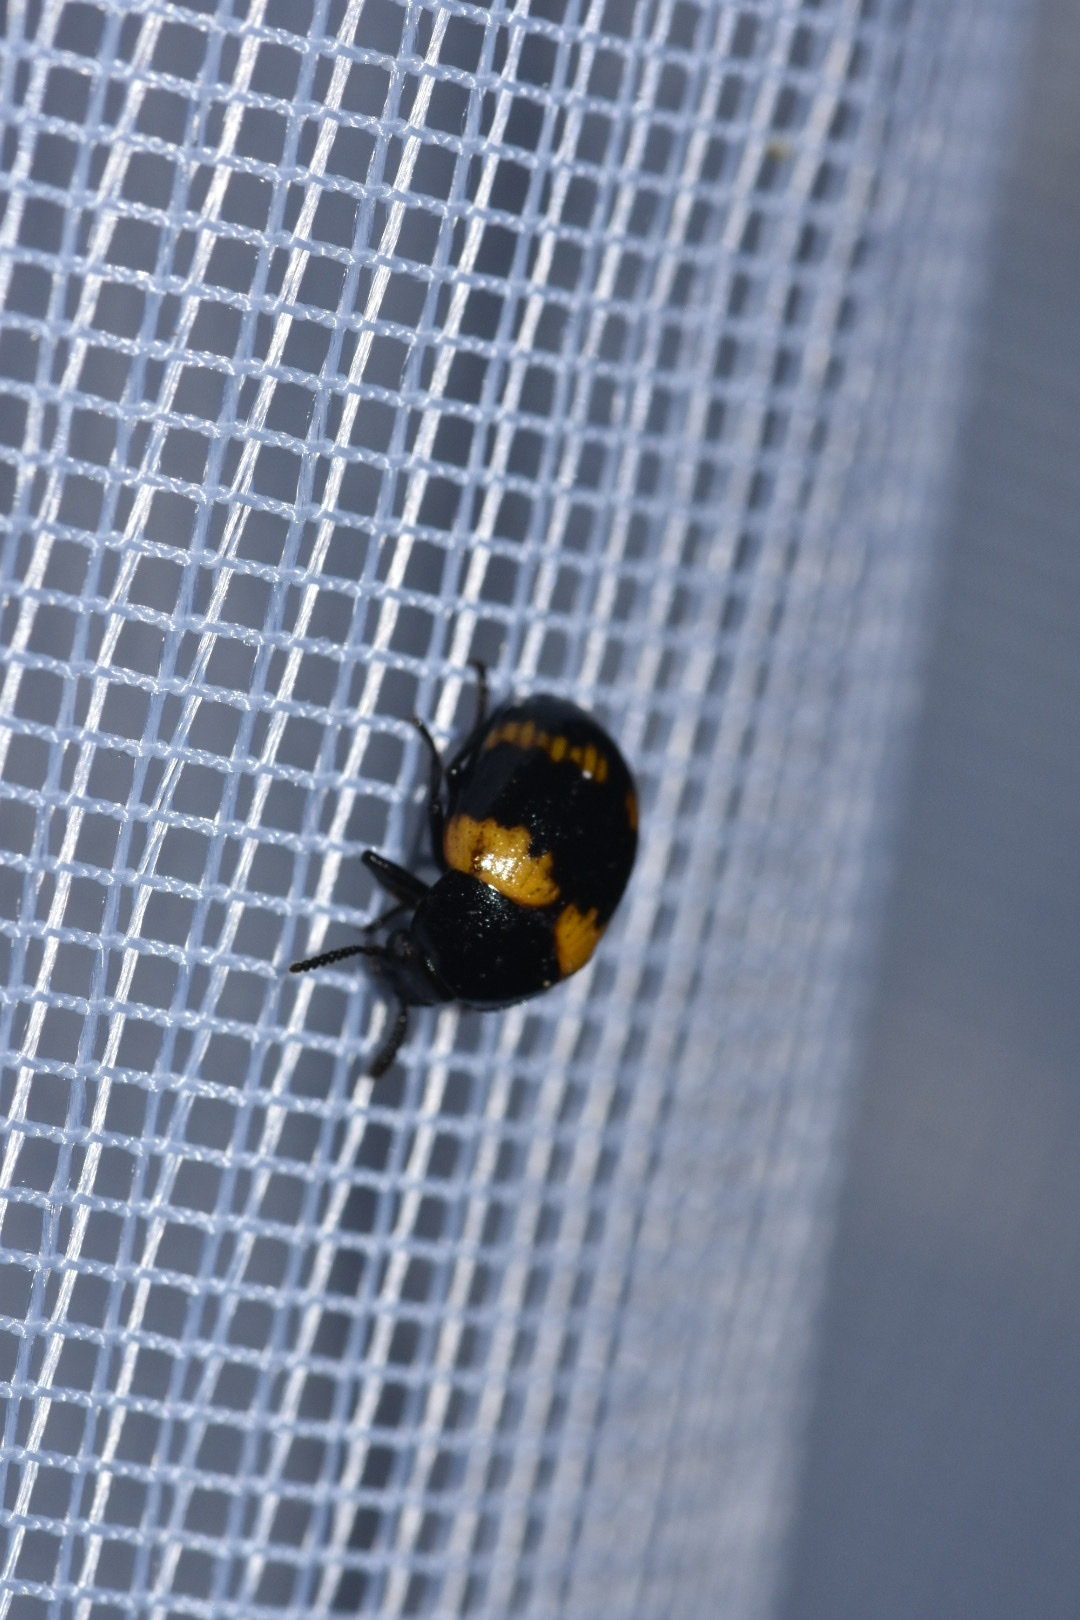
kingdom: Animalia
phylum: Arthropoda
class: Insecta
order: Coleoptera
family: Tenebrionidae
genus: Diaperis
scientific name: Diaperis boleti
